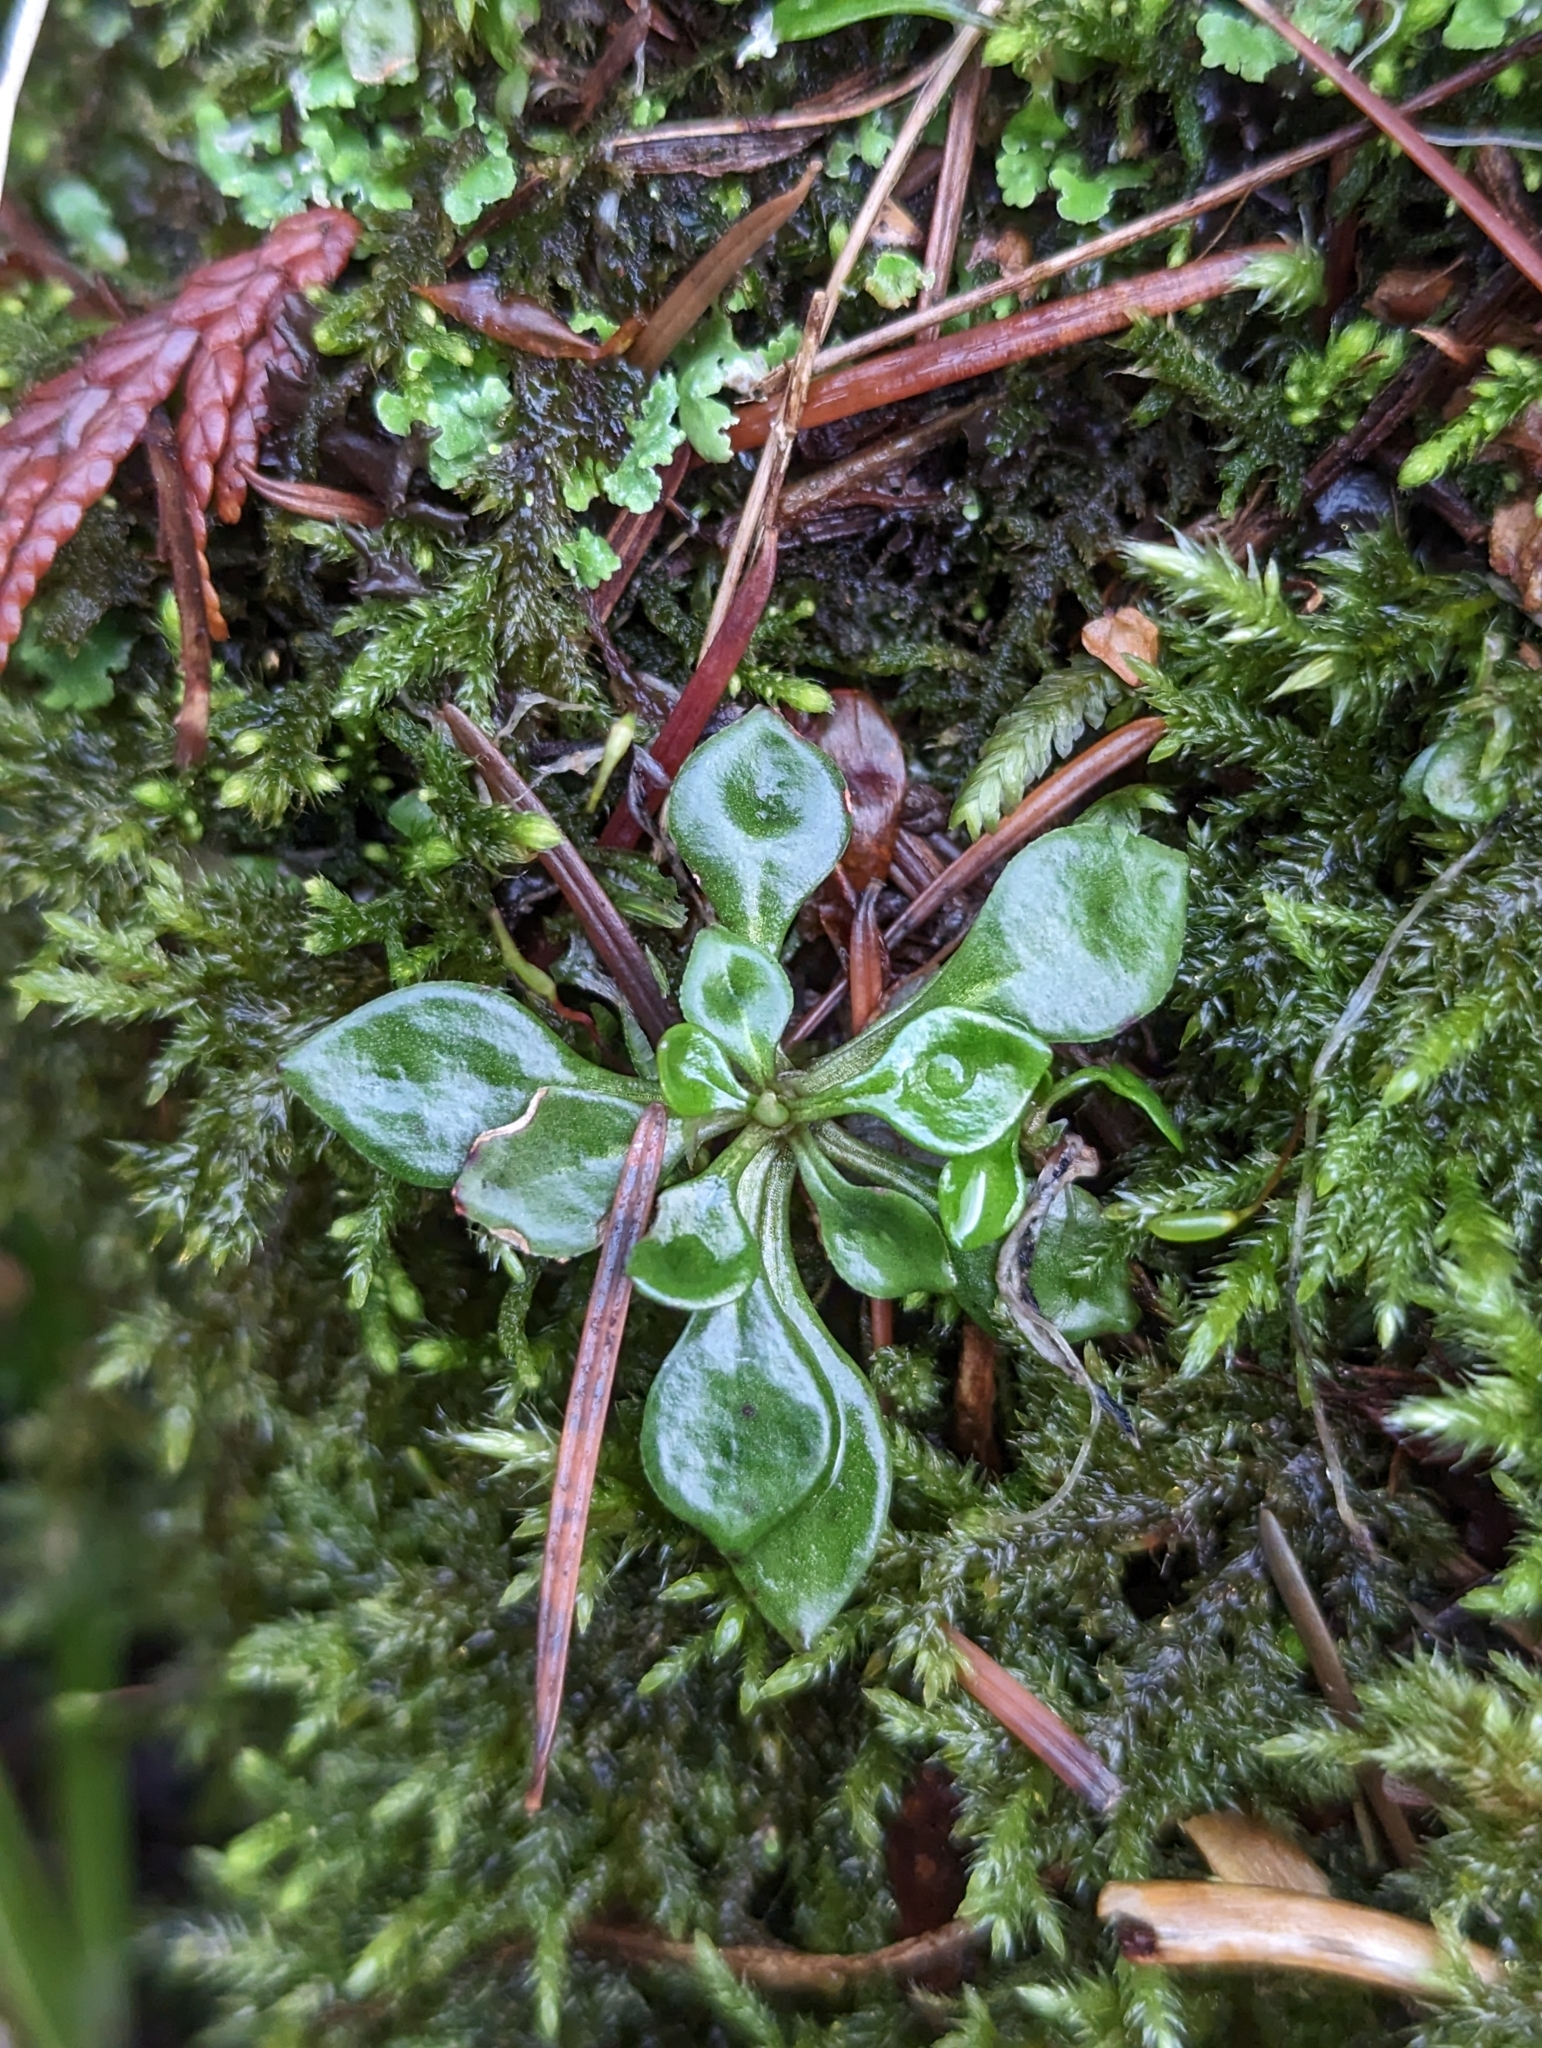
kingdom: Plantae
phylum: Tracheophyta
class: Magnoliopsida
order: Caryophyllales
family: Montiaceae
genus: Montia
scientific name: Montia parvifolia
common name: Small-leaved blinks
